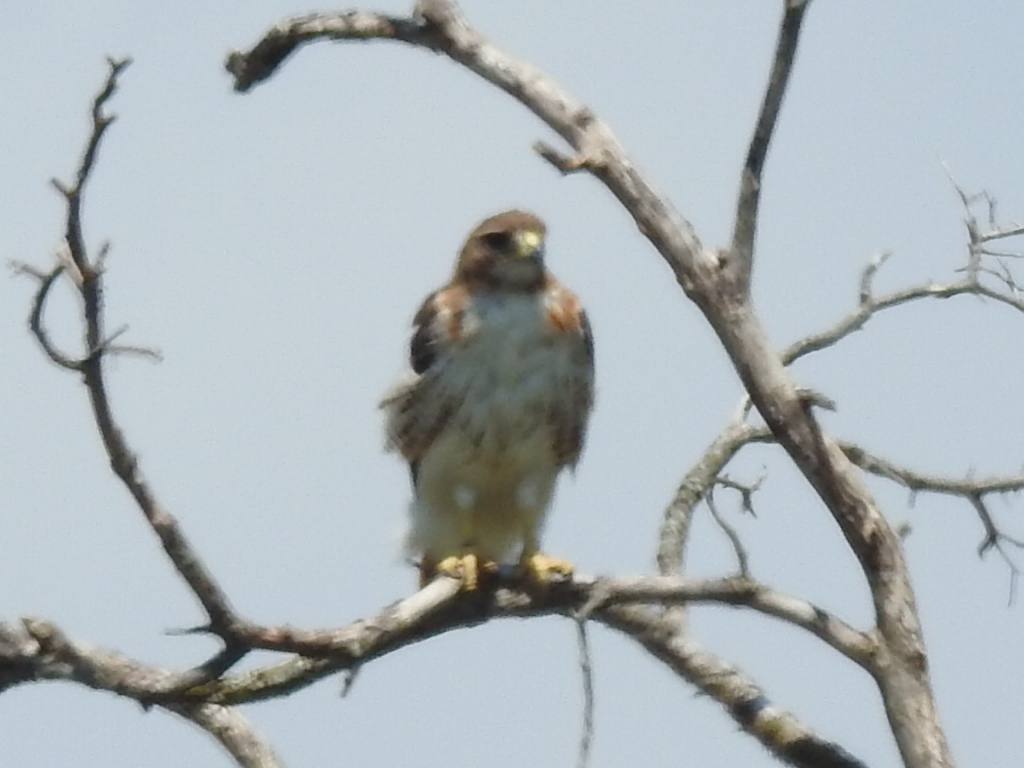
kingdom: Animalia
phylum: Chordata
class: Aves
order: Accipitriformes
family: Accipitridae
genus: Buteo
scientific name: Buteo jamaicensis
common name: Red-tailed hawk
